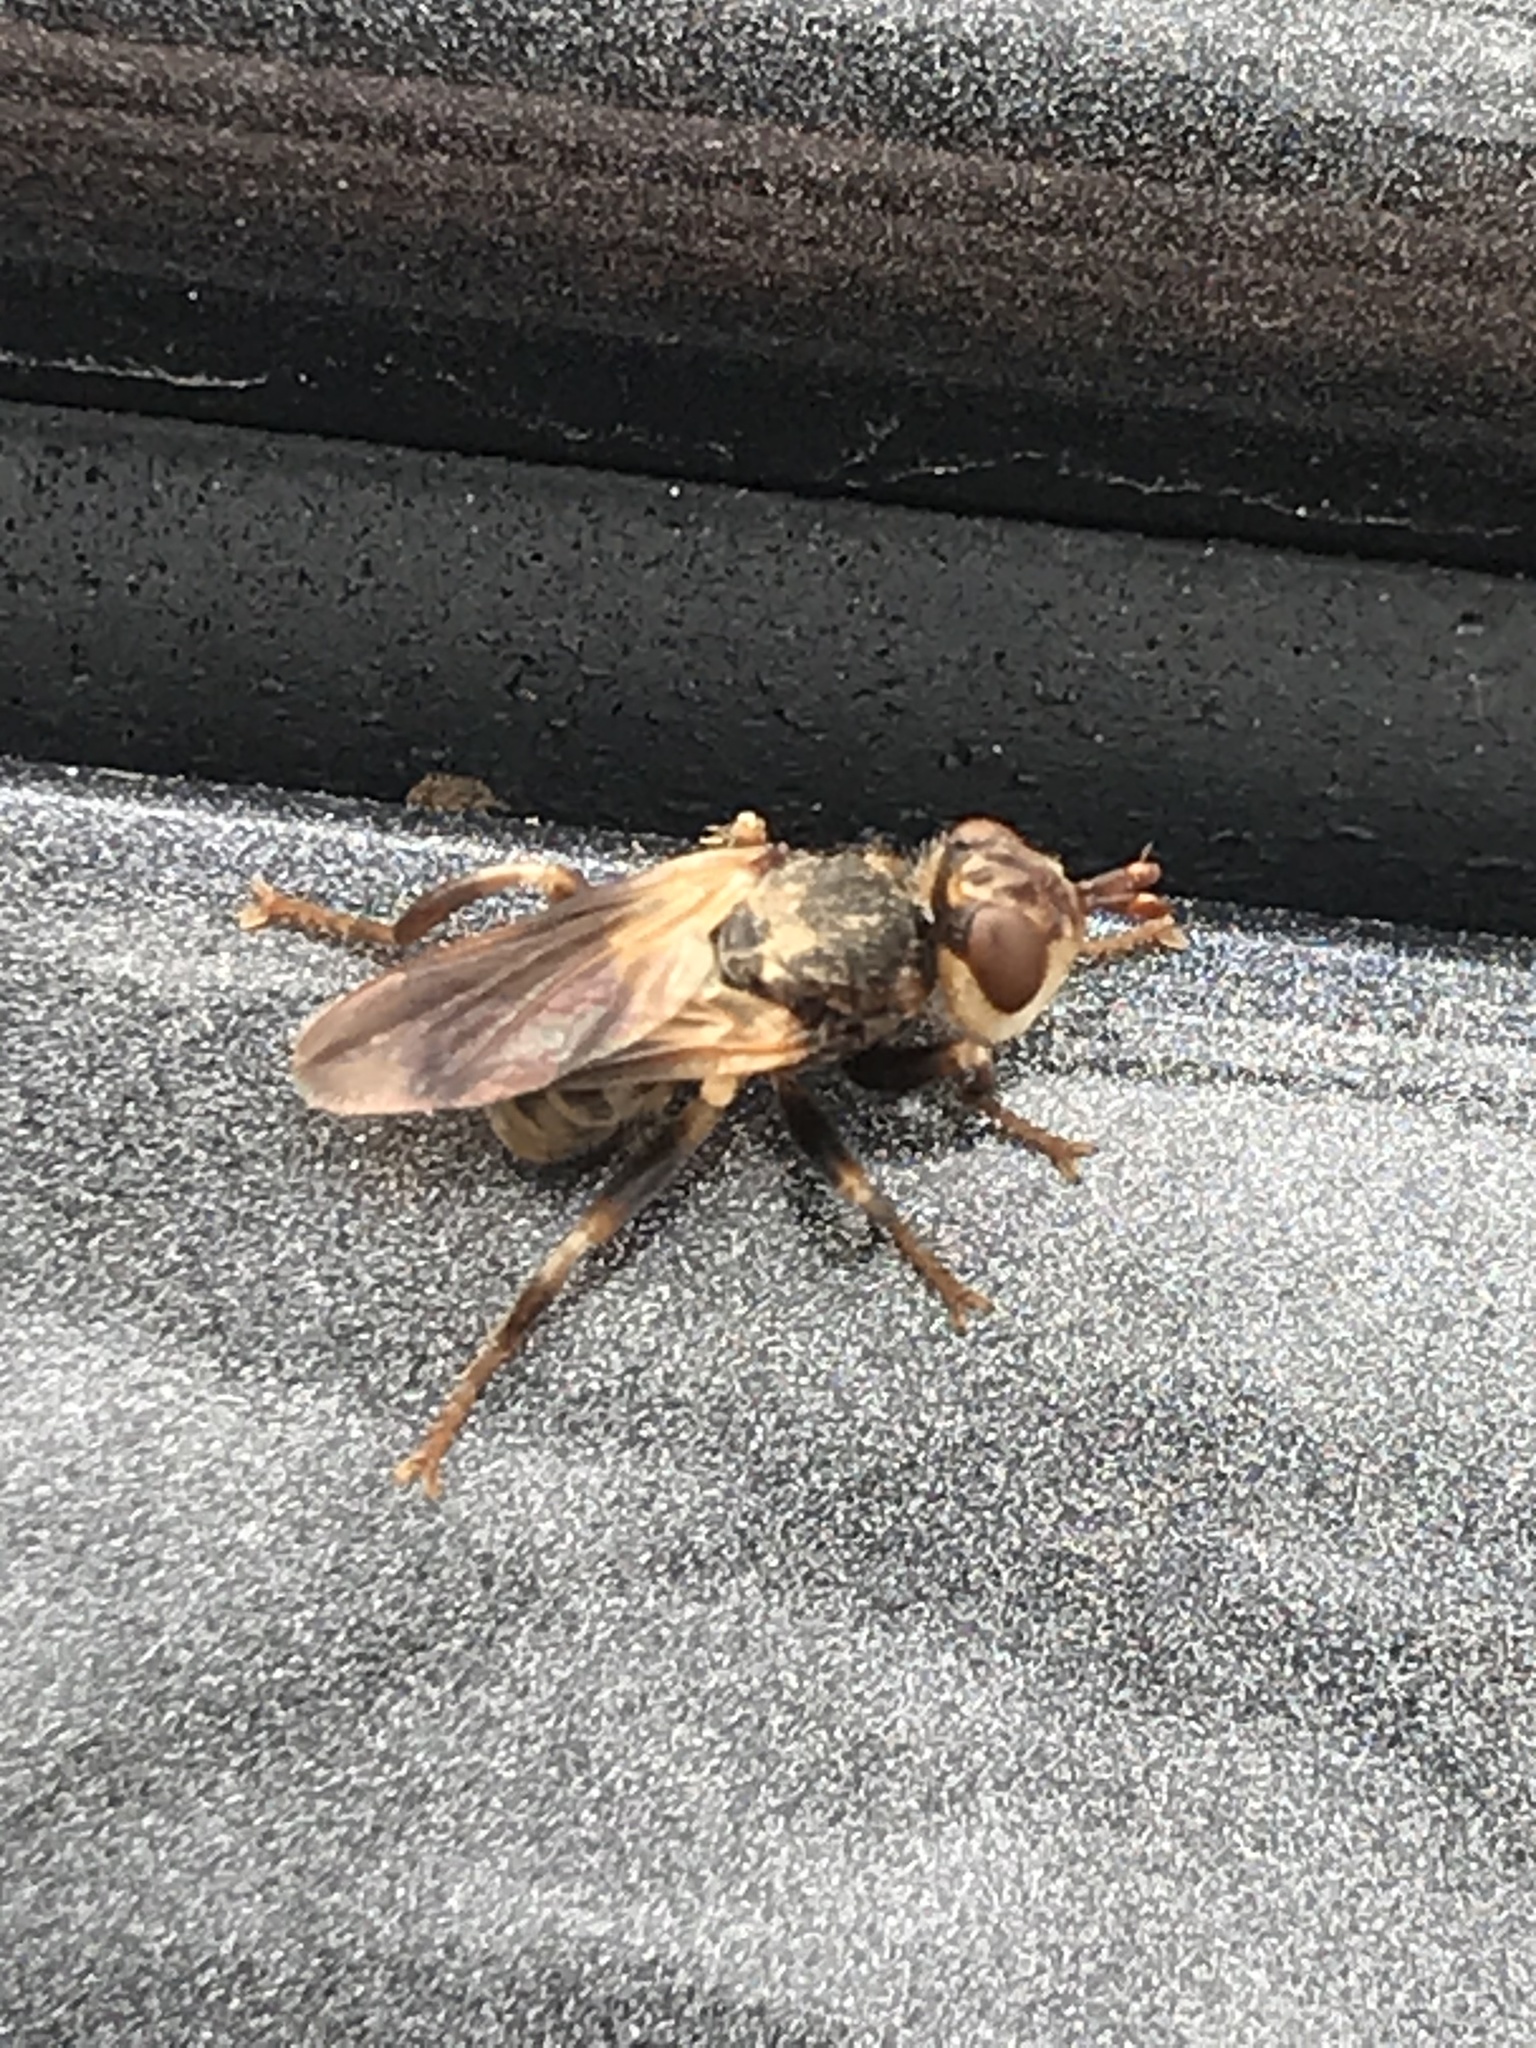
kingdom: Animalia
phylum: Arthropoda
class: Insecta
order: Diptera
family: Conopidae
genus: Myopa
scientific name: Myopa vesiculosa
